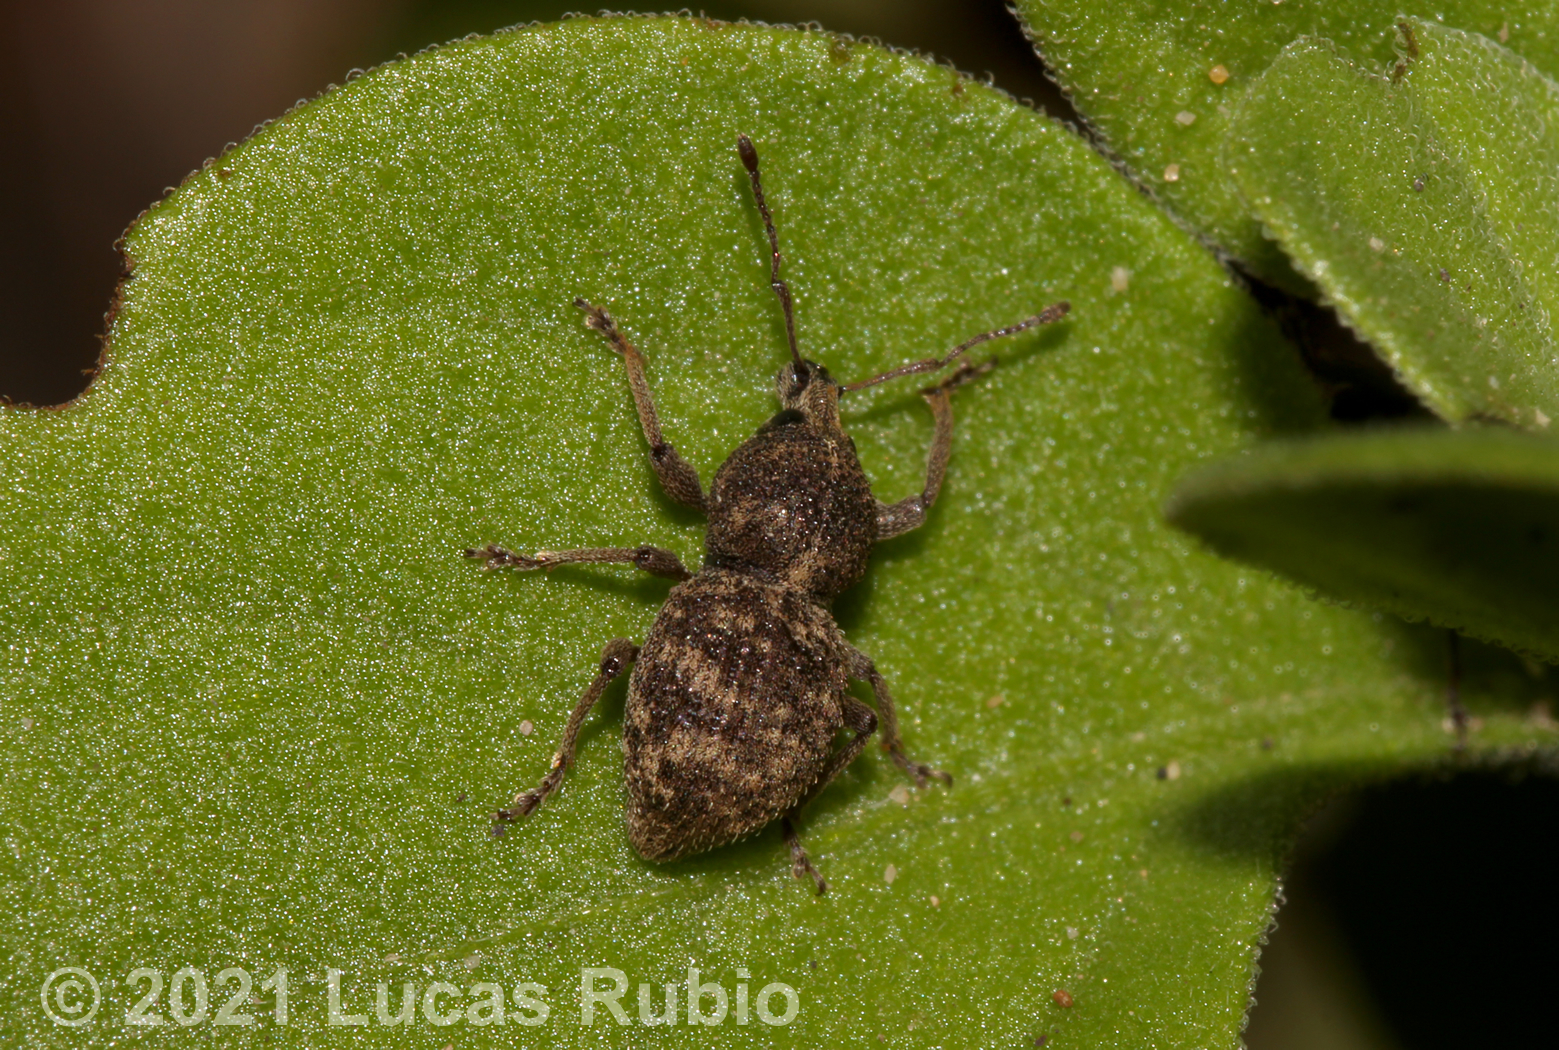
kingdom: Animalia
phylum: Arthropoda
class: Insecta
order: Coleoptera
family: Curculionidae
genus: Hyphantus
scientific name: Hyphantus argentinensis
